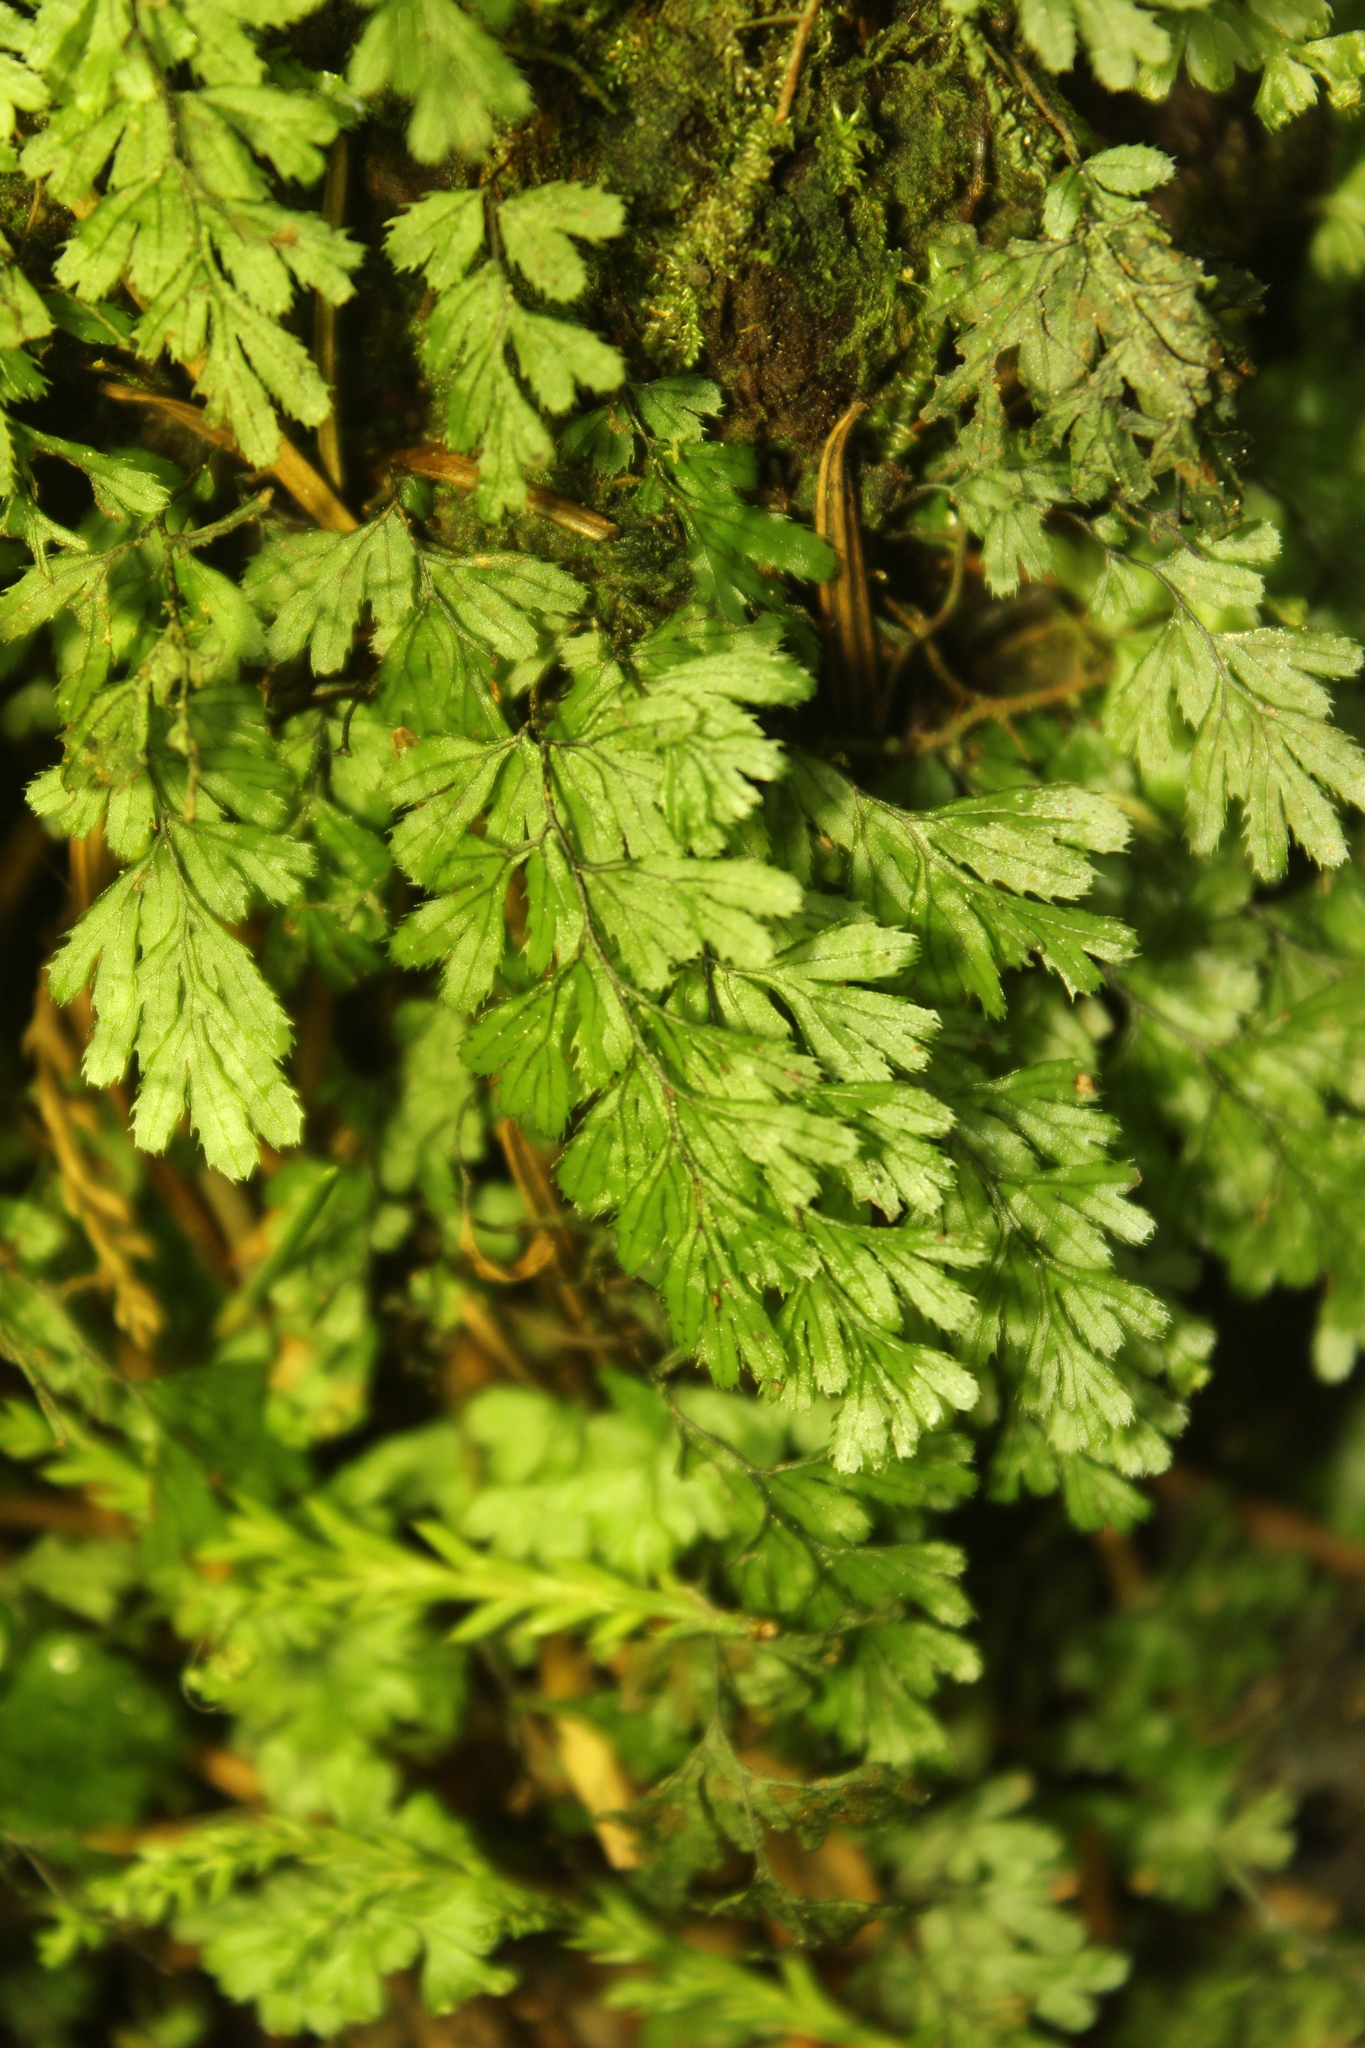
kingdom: Plantae
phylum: Tracheophyta
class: Polypodiopsida
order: Hymenophyllales
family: Hymenophyllaceae
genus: Hymenophyllum
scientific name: Hymenophyllum revolutum
